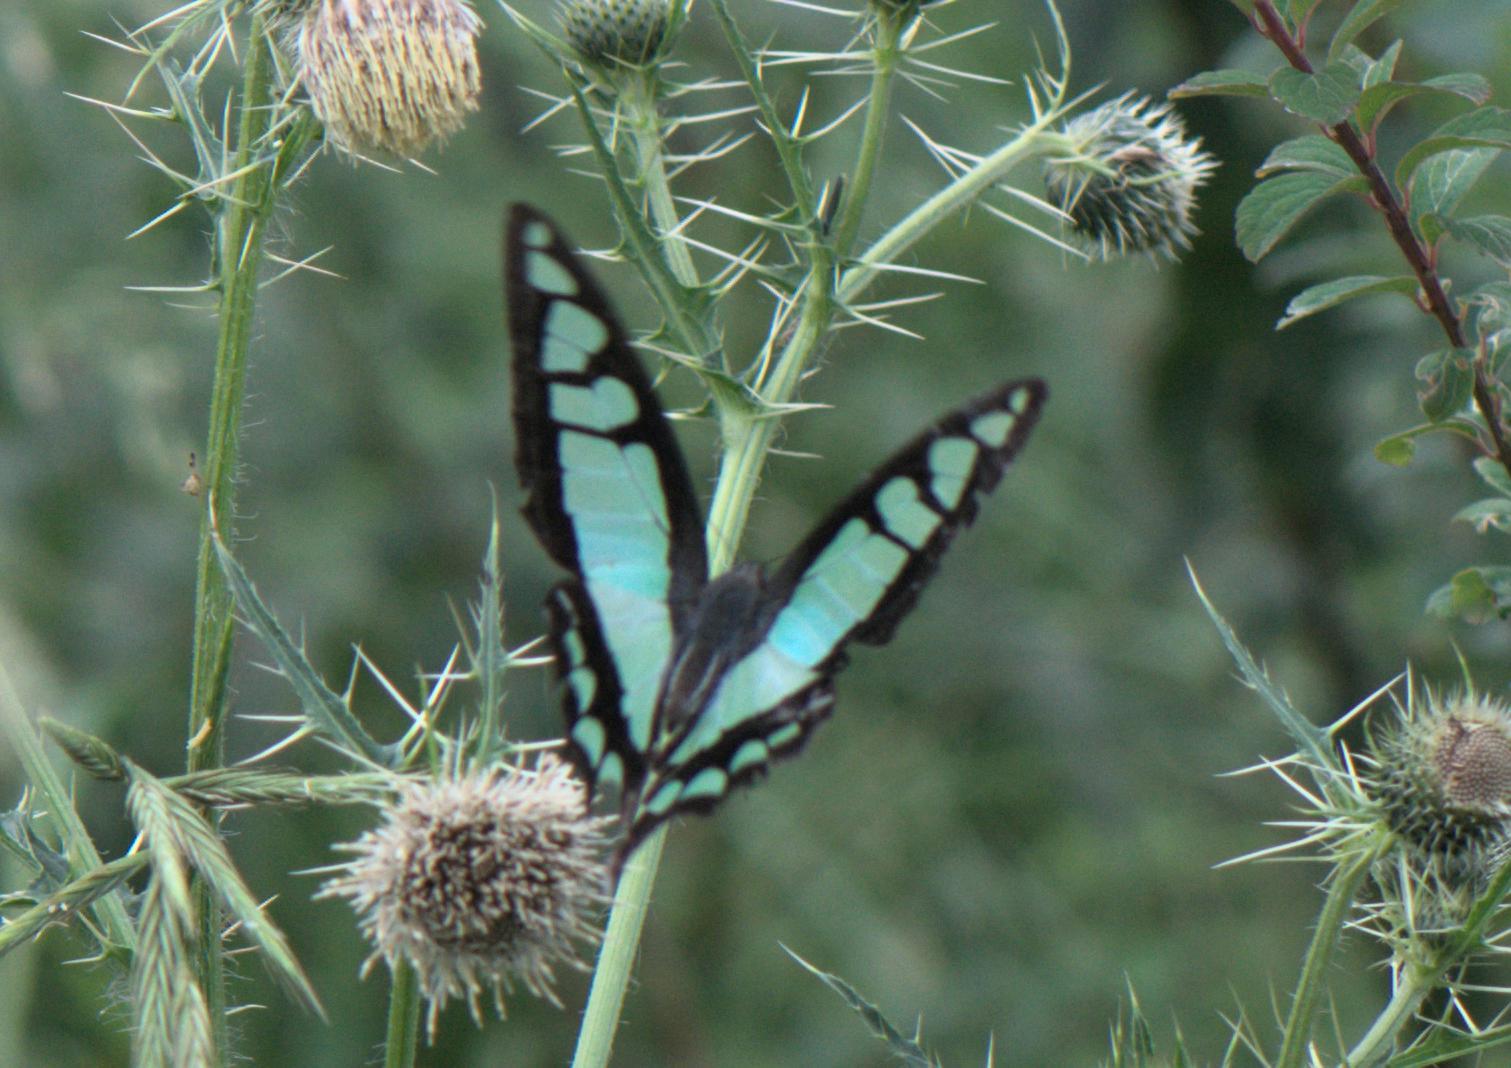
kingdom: Animalia
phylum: Arthropoda
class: Insecta
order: Lepidoptera
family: Papilionidae
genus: Graphium
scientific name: Graphium cloanthus
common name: Glassy bluebottle
